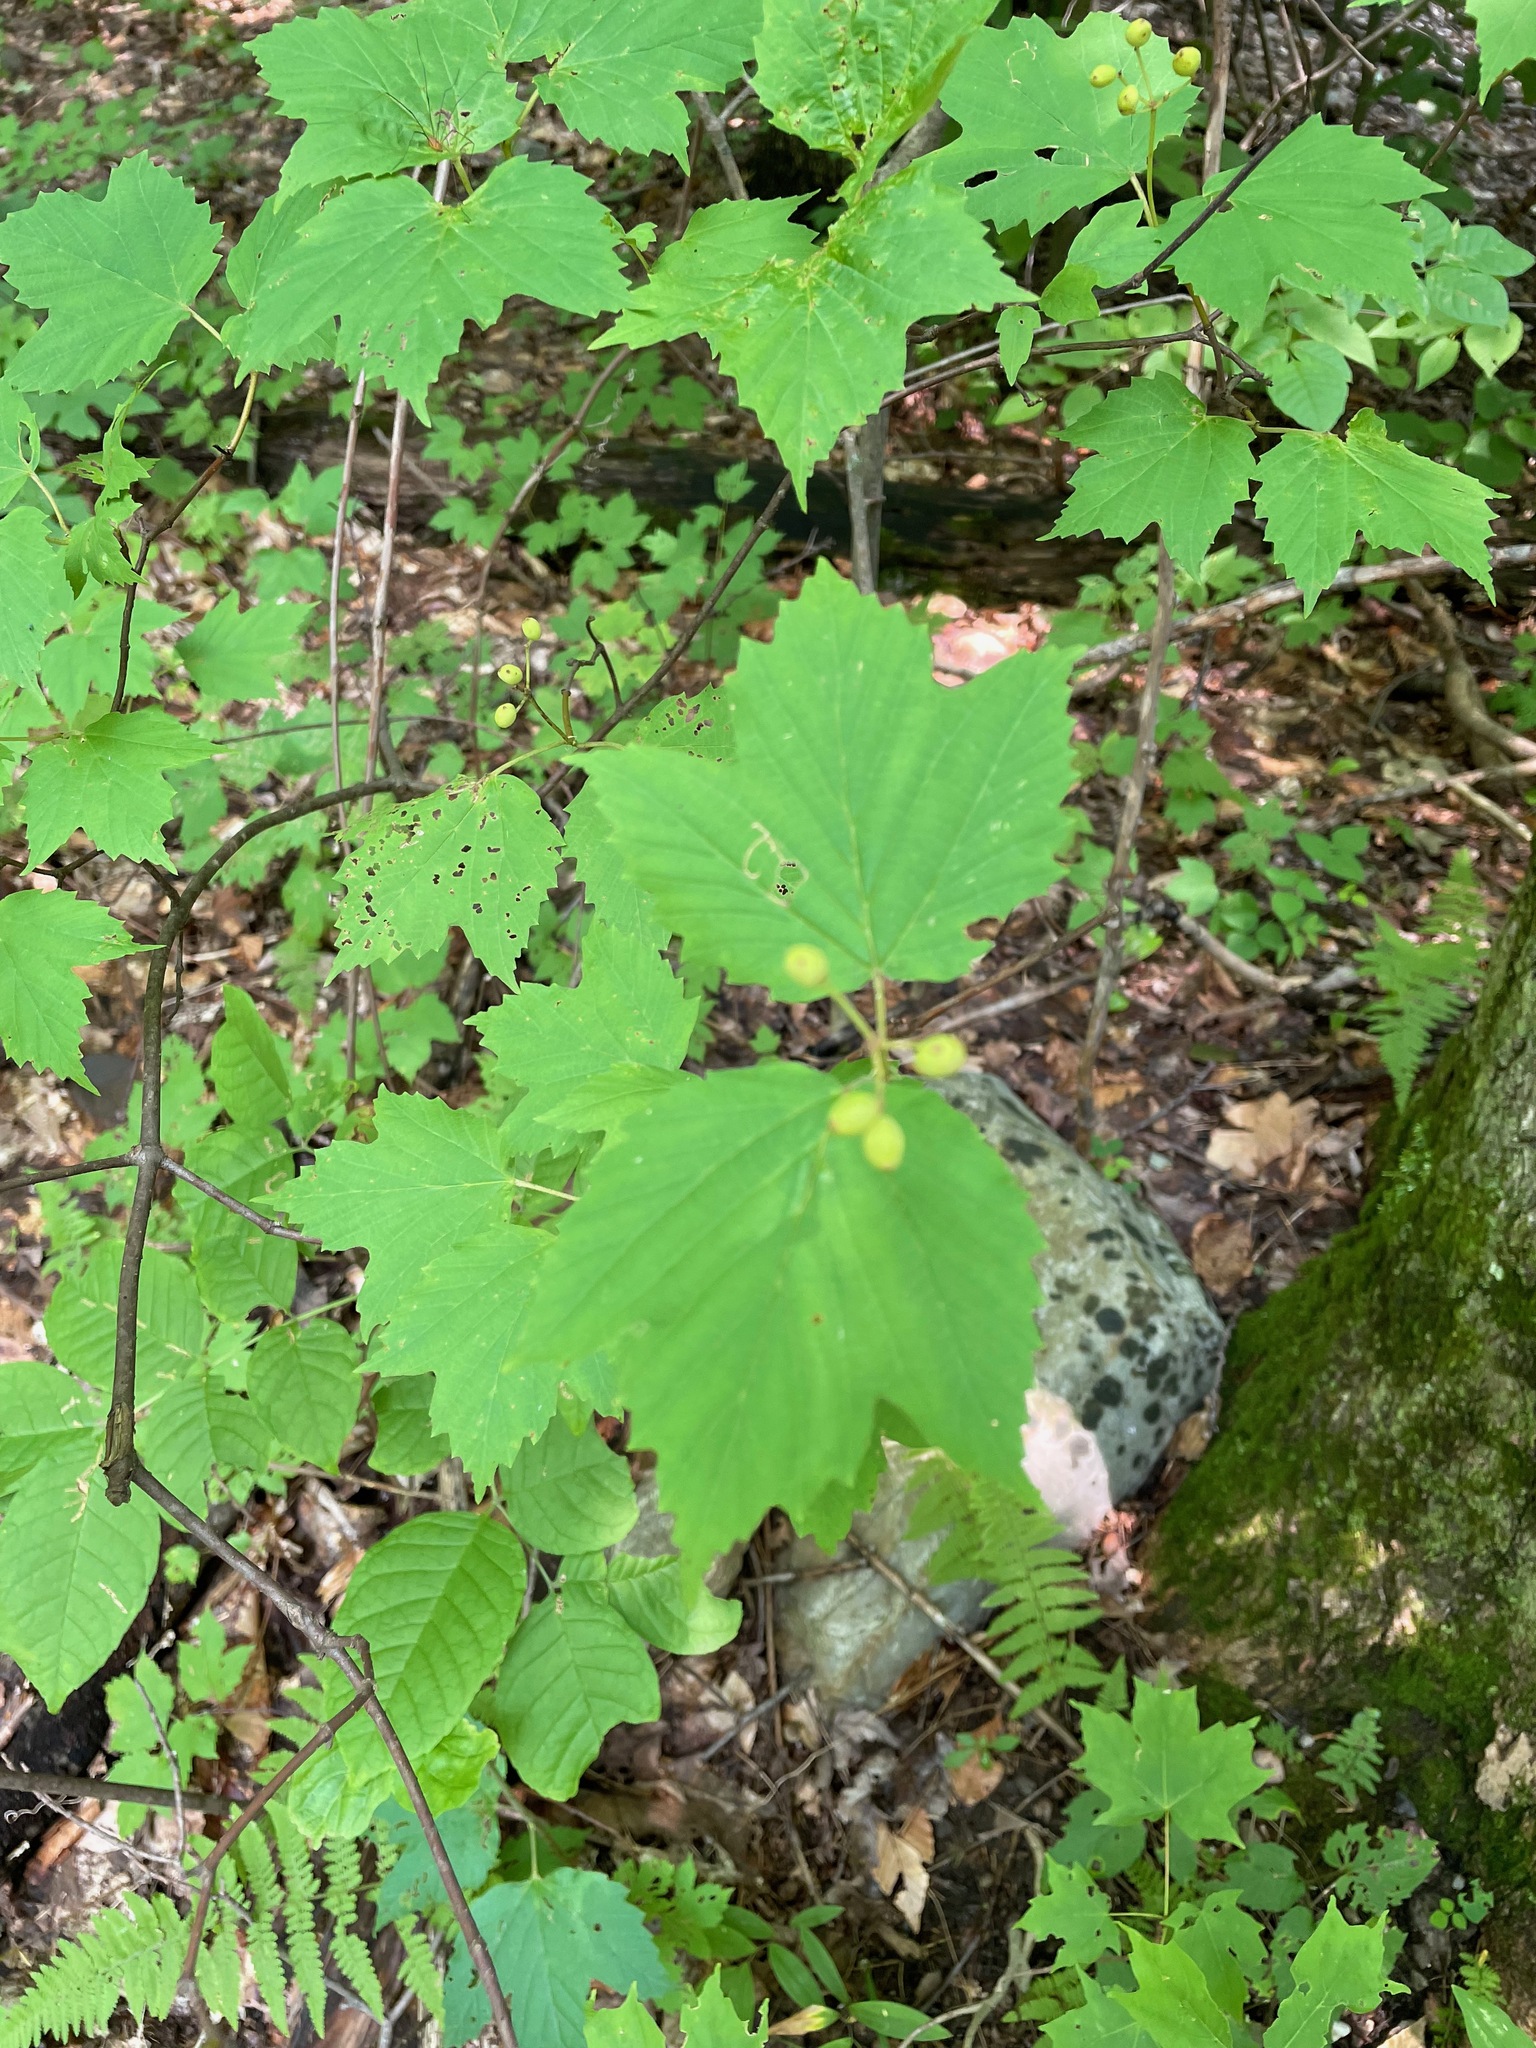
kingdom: Plantae
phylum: Tracheophyta
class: Magnoliopsida
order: Dipsacales
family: Viburnaceae
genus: Viburnum
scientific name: Viburnum acerifolium
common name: Dockmackie
